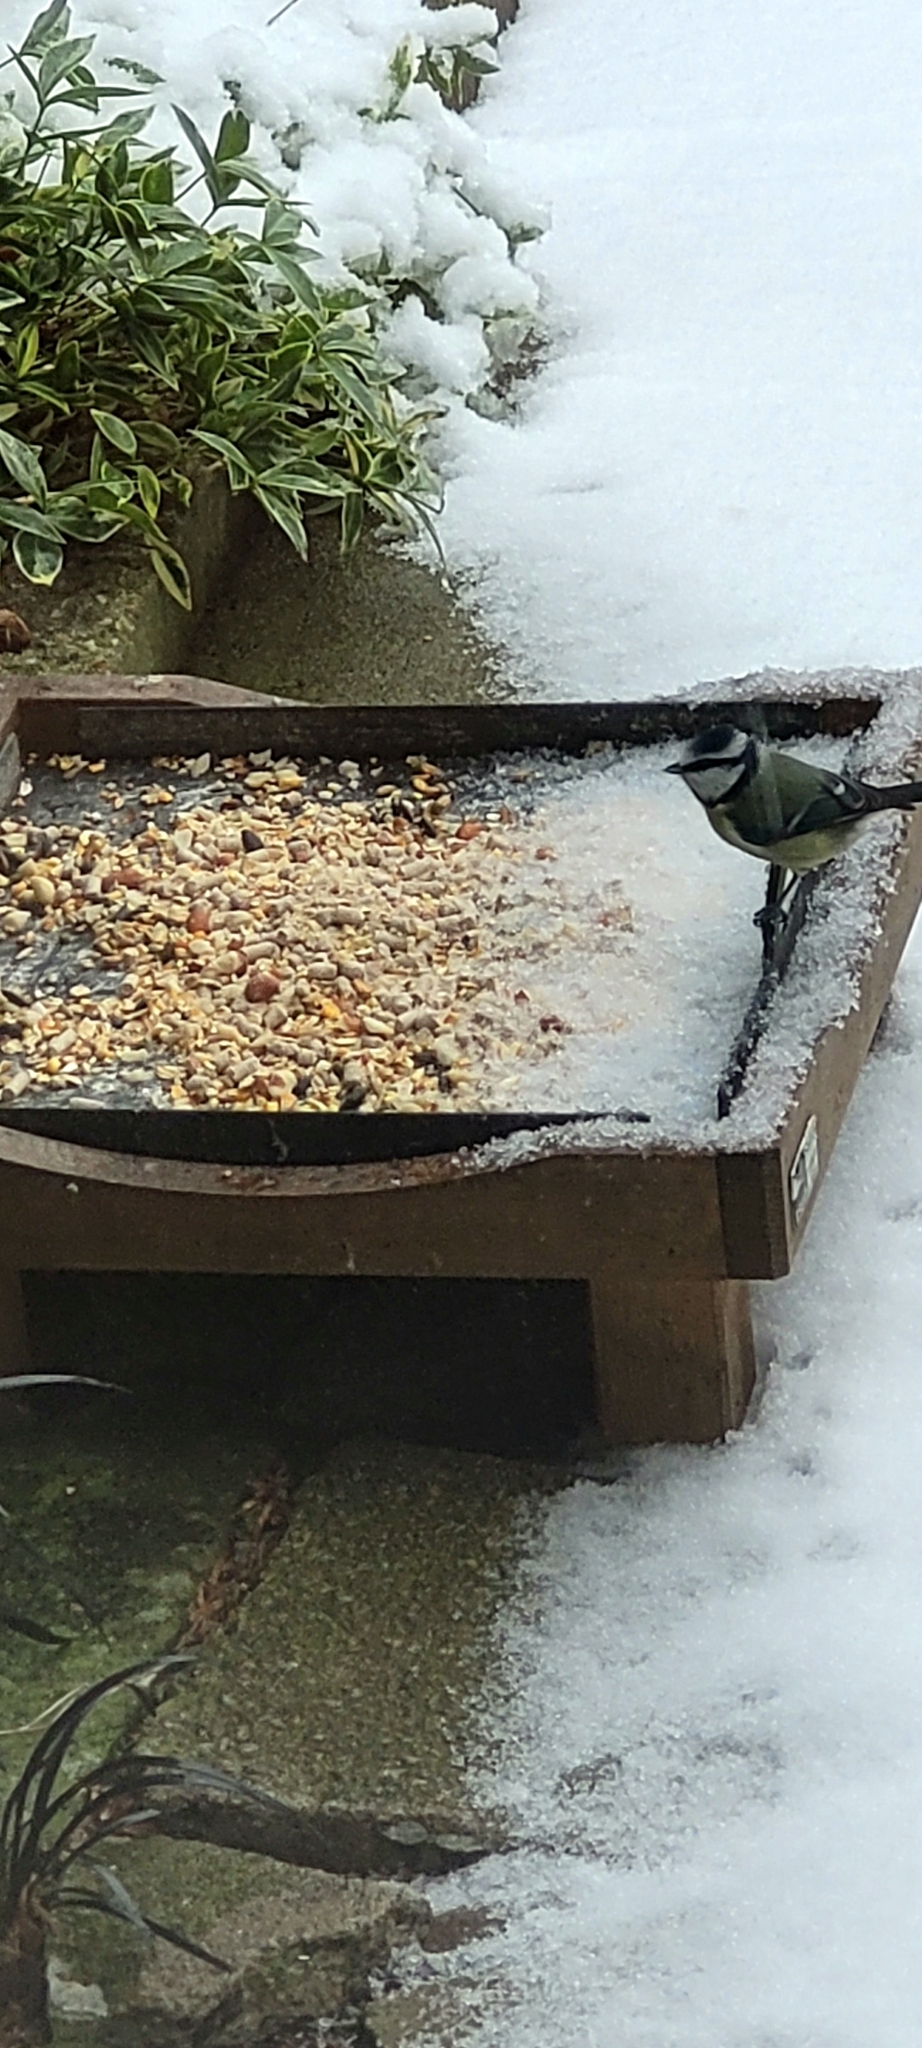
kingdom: Animalia
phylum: Chordata
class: Aves
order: Passeriformes
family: Paridae
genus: Cyanistes
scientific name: Cyanistes caeruleus
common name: Eurasian blue tit
